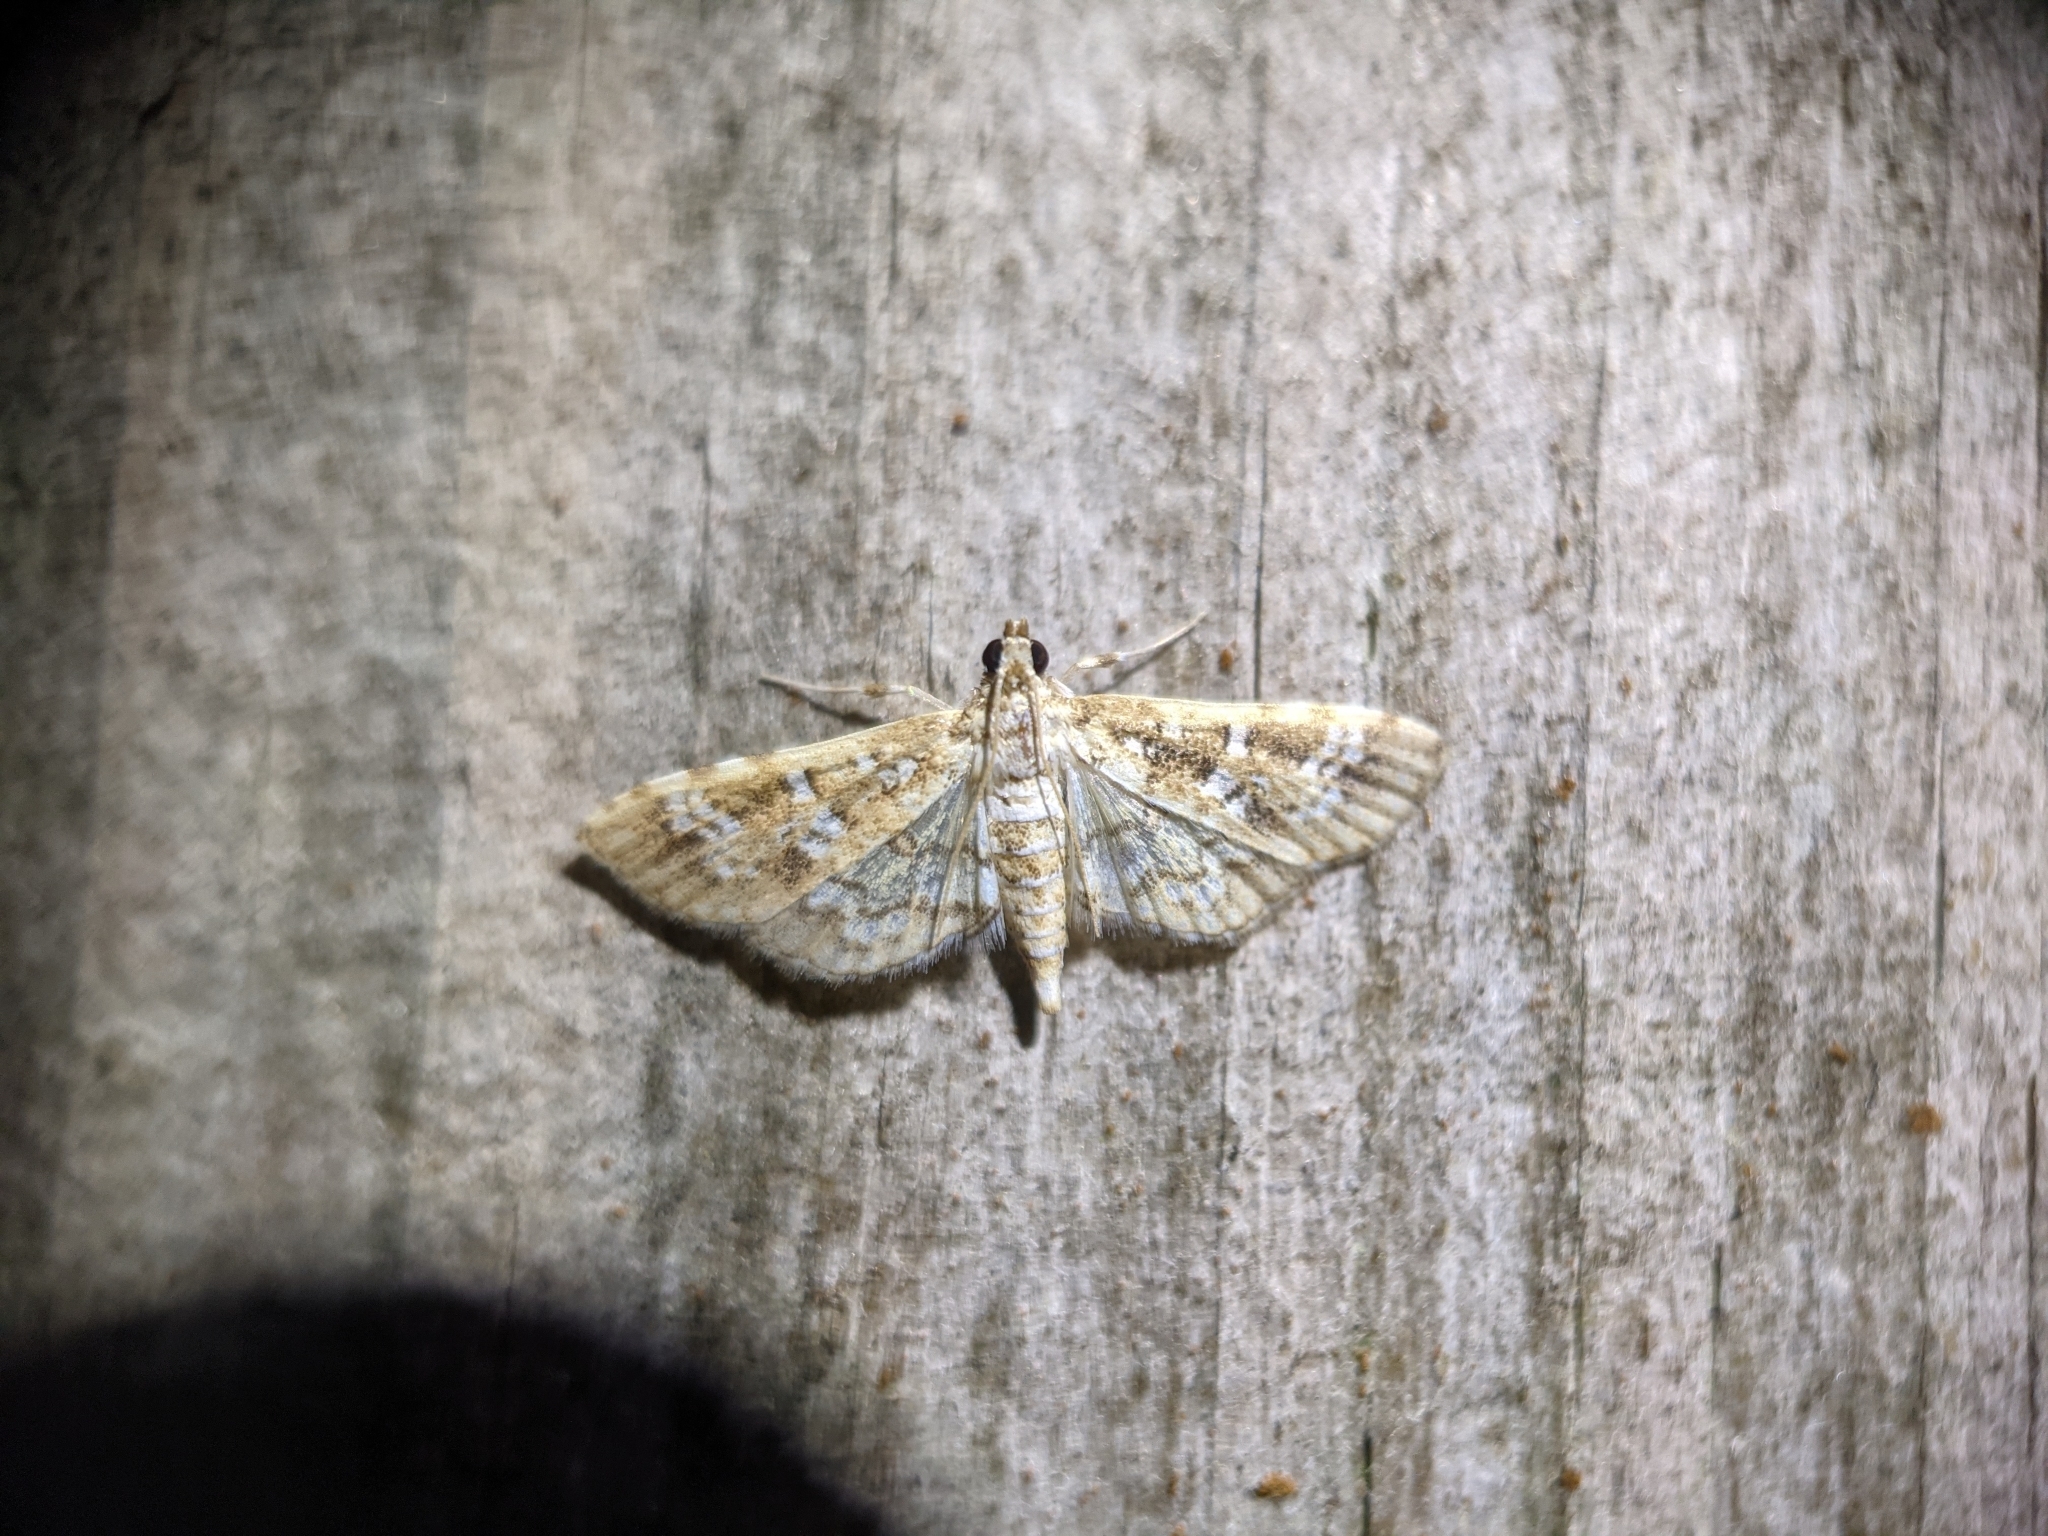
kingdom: Animalia
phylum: Arthropoda
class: Insecta
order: Lepidoptera
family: Crambidae
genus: Samea
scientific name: Samea multiplicalis
